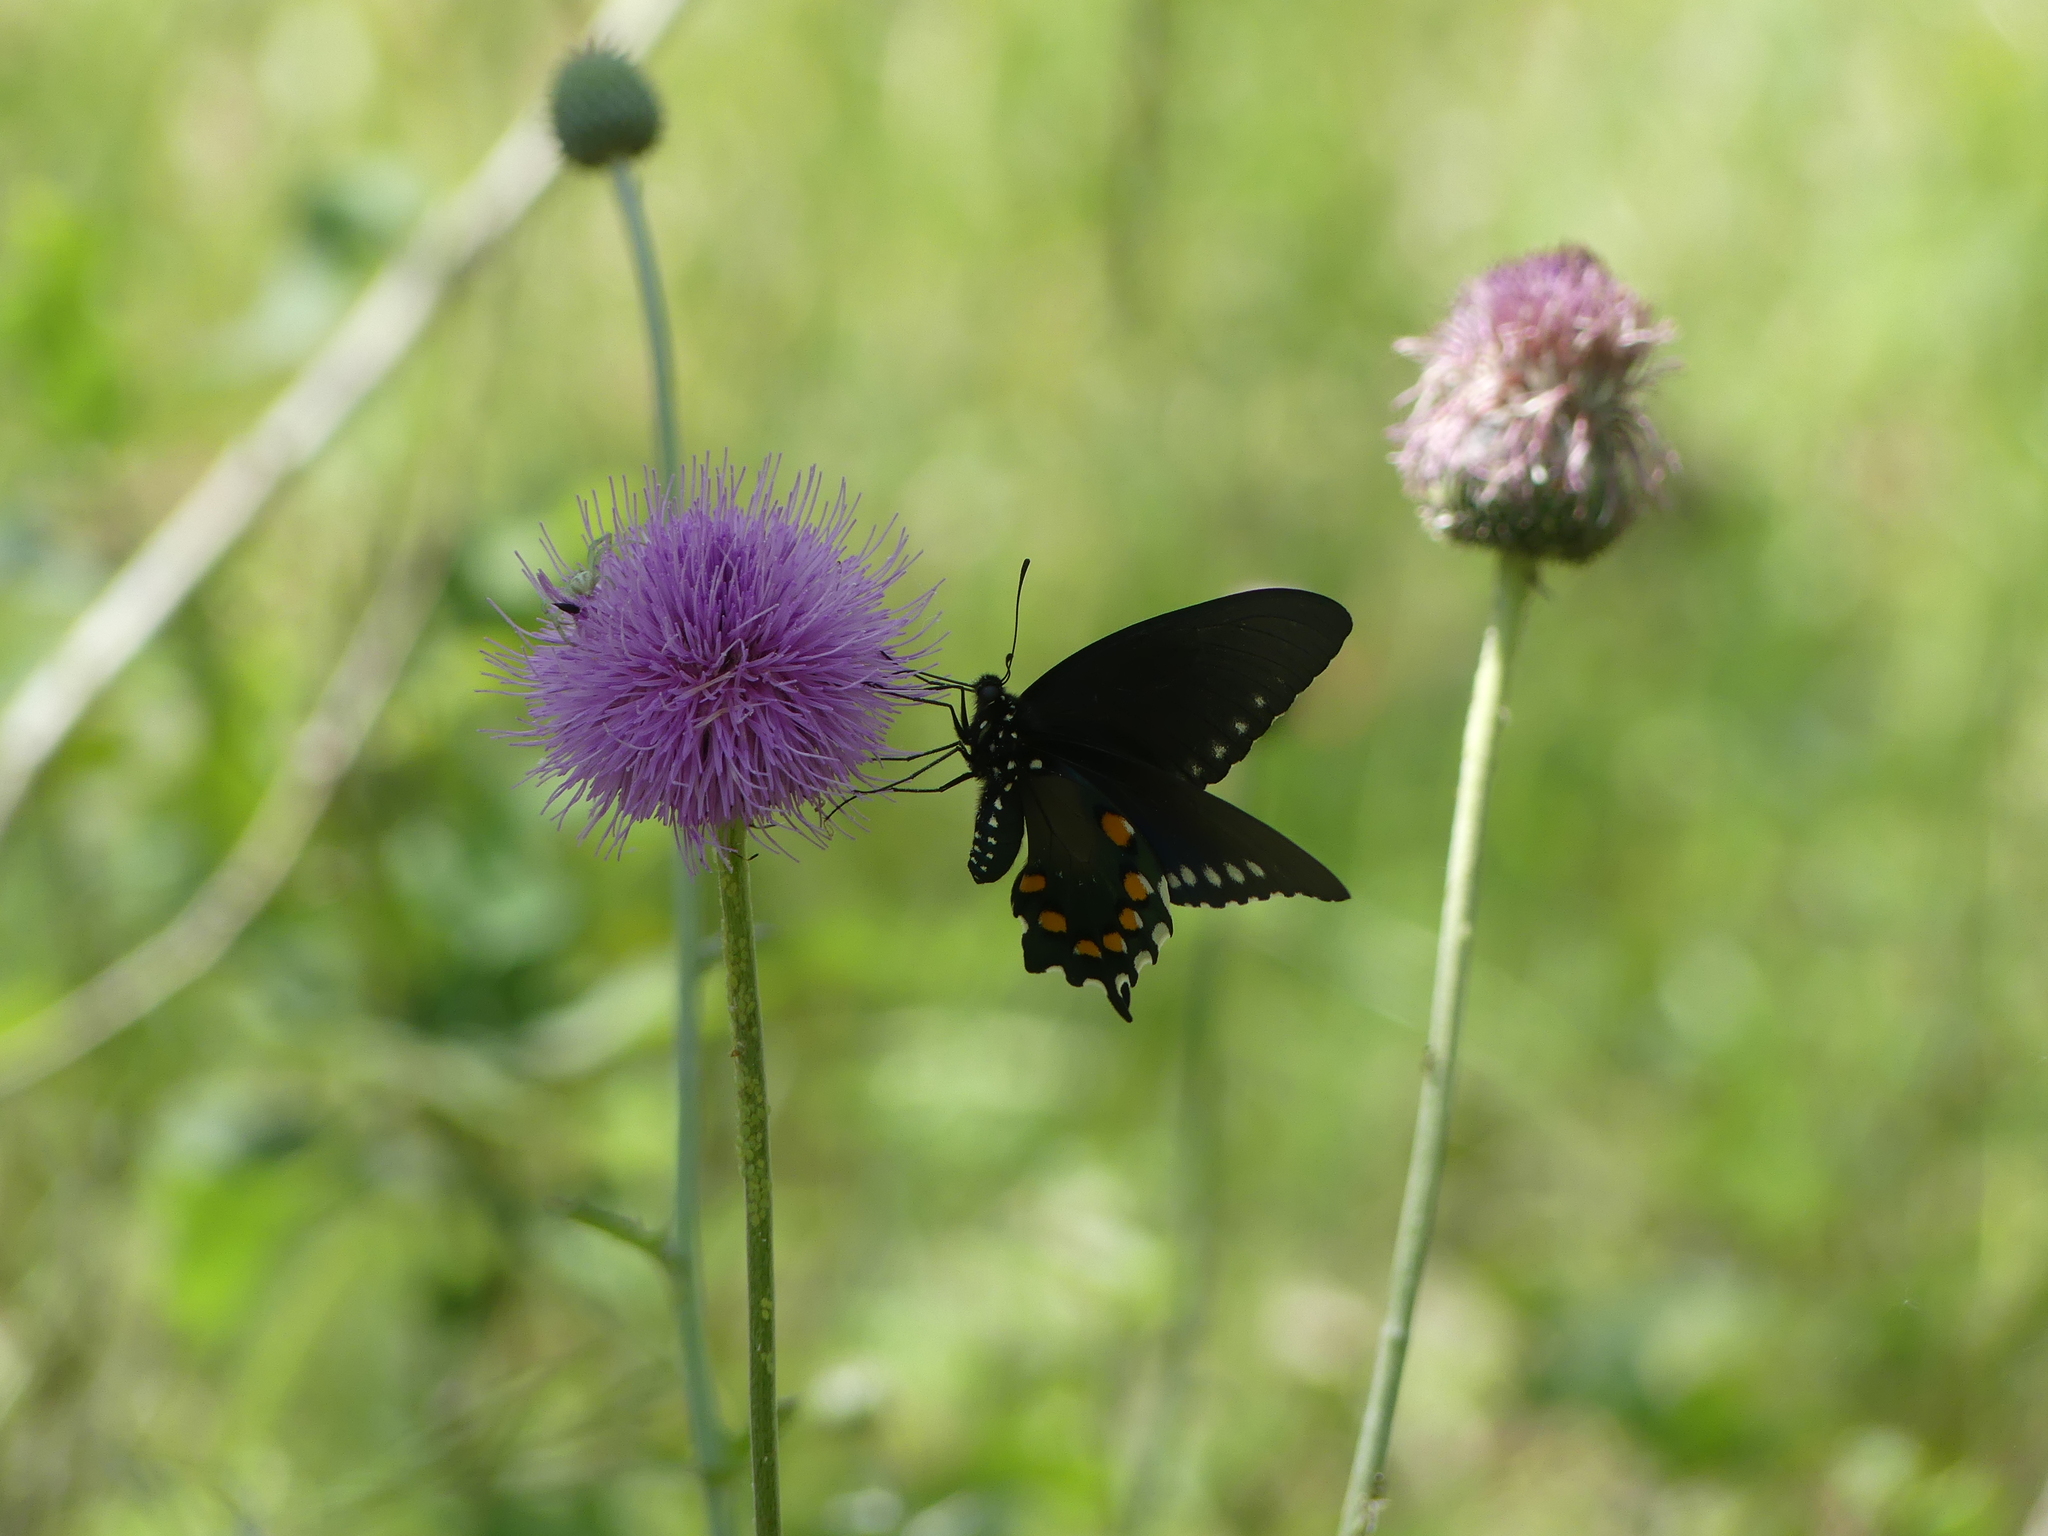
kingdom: Animalia
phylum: Arthropoda
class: Insecta
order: Lepidoptera
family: Papilionidae
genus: Battus
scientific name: Battus philenor
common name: Pipevine swallowtail
